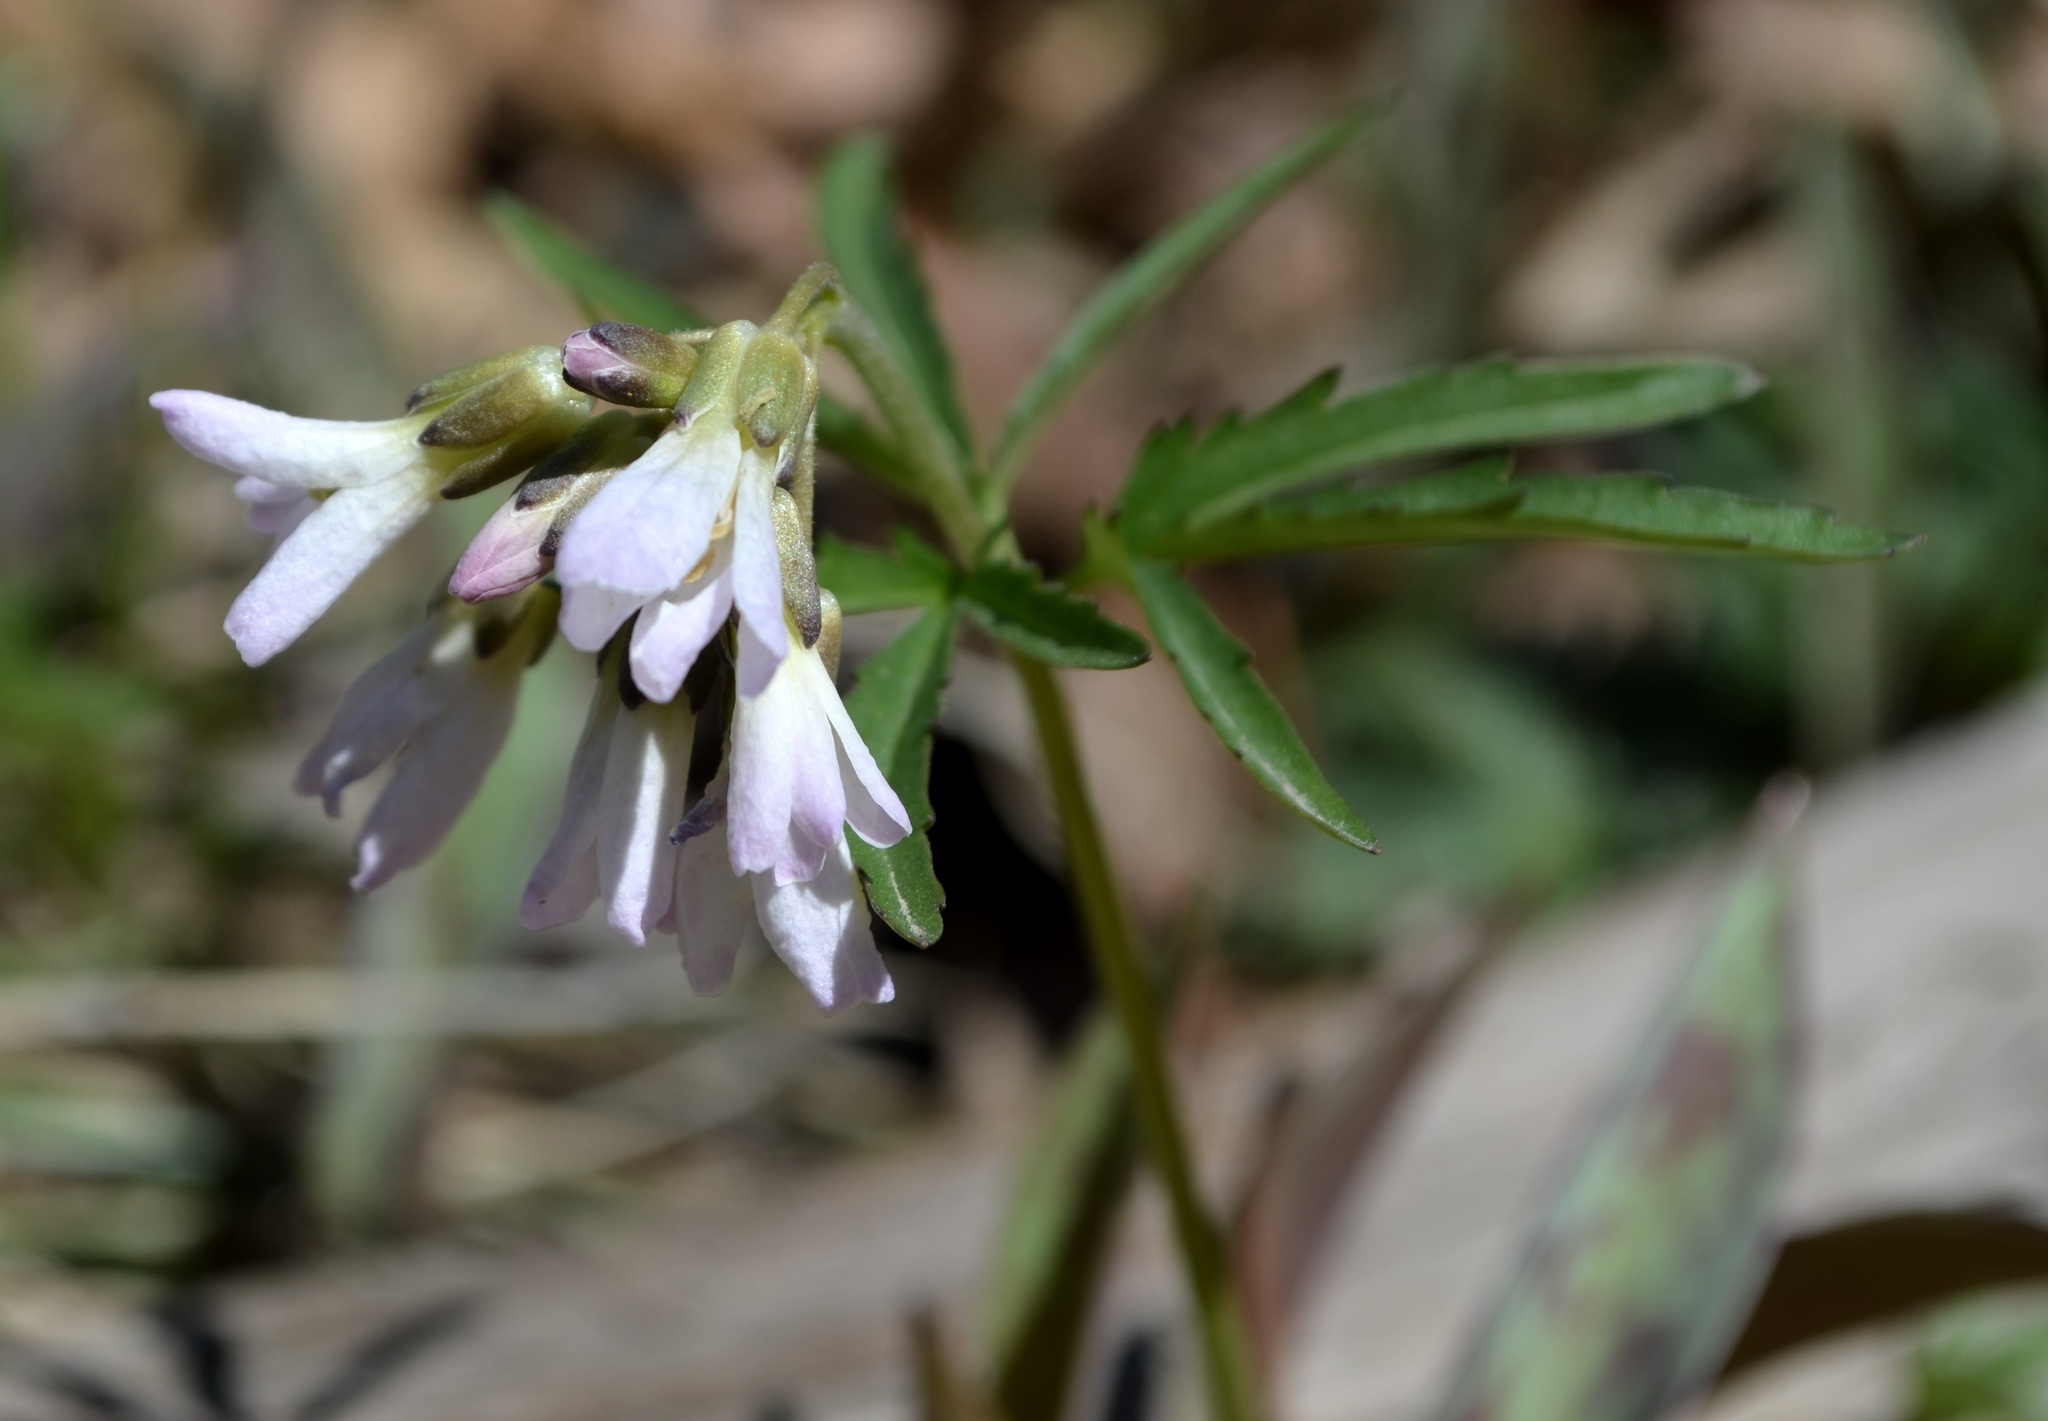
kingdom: Plantae
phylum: Tracheophyta
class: Magnoliopsida
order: Brassicales
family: Brassicaceae
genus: Cardamine
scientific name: Cardamine concatenata
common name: Cut-leaf toothcup
